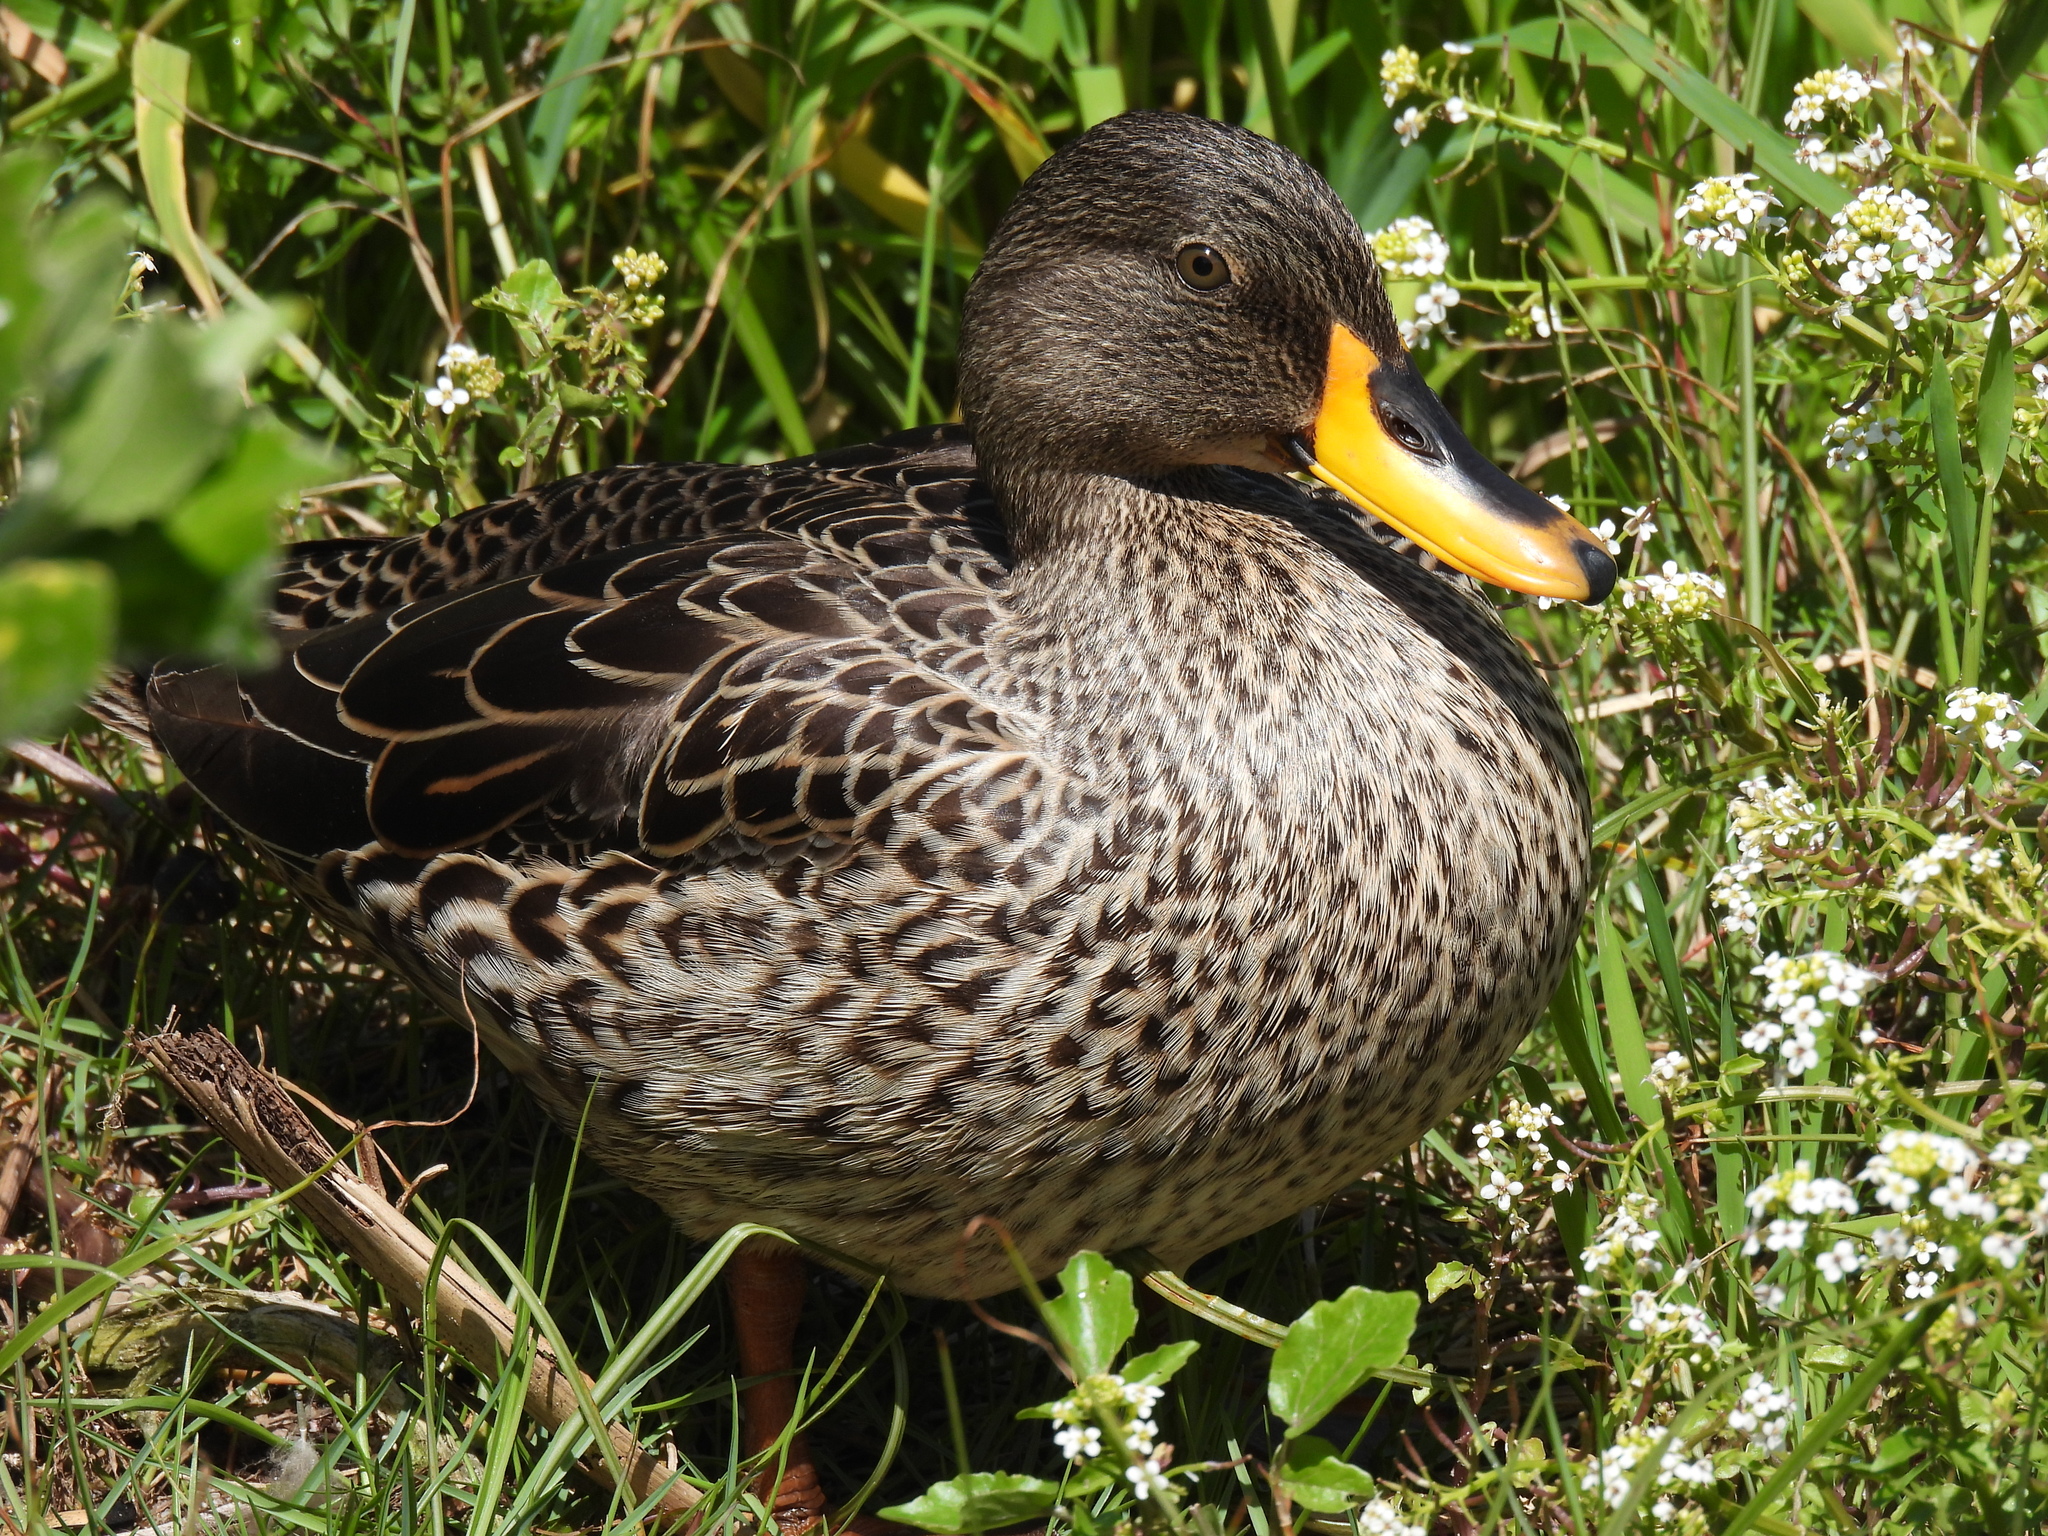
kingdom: Animalia
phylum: Chordata
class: Aves
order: Anseriformes
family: Anatidae
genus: Anas
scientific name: Anas undulata
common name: Yellow-billed duck
